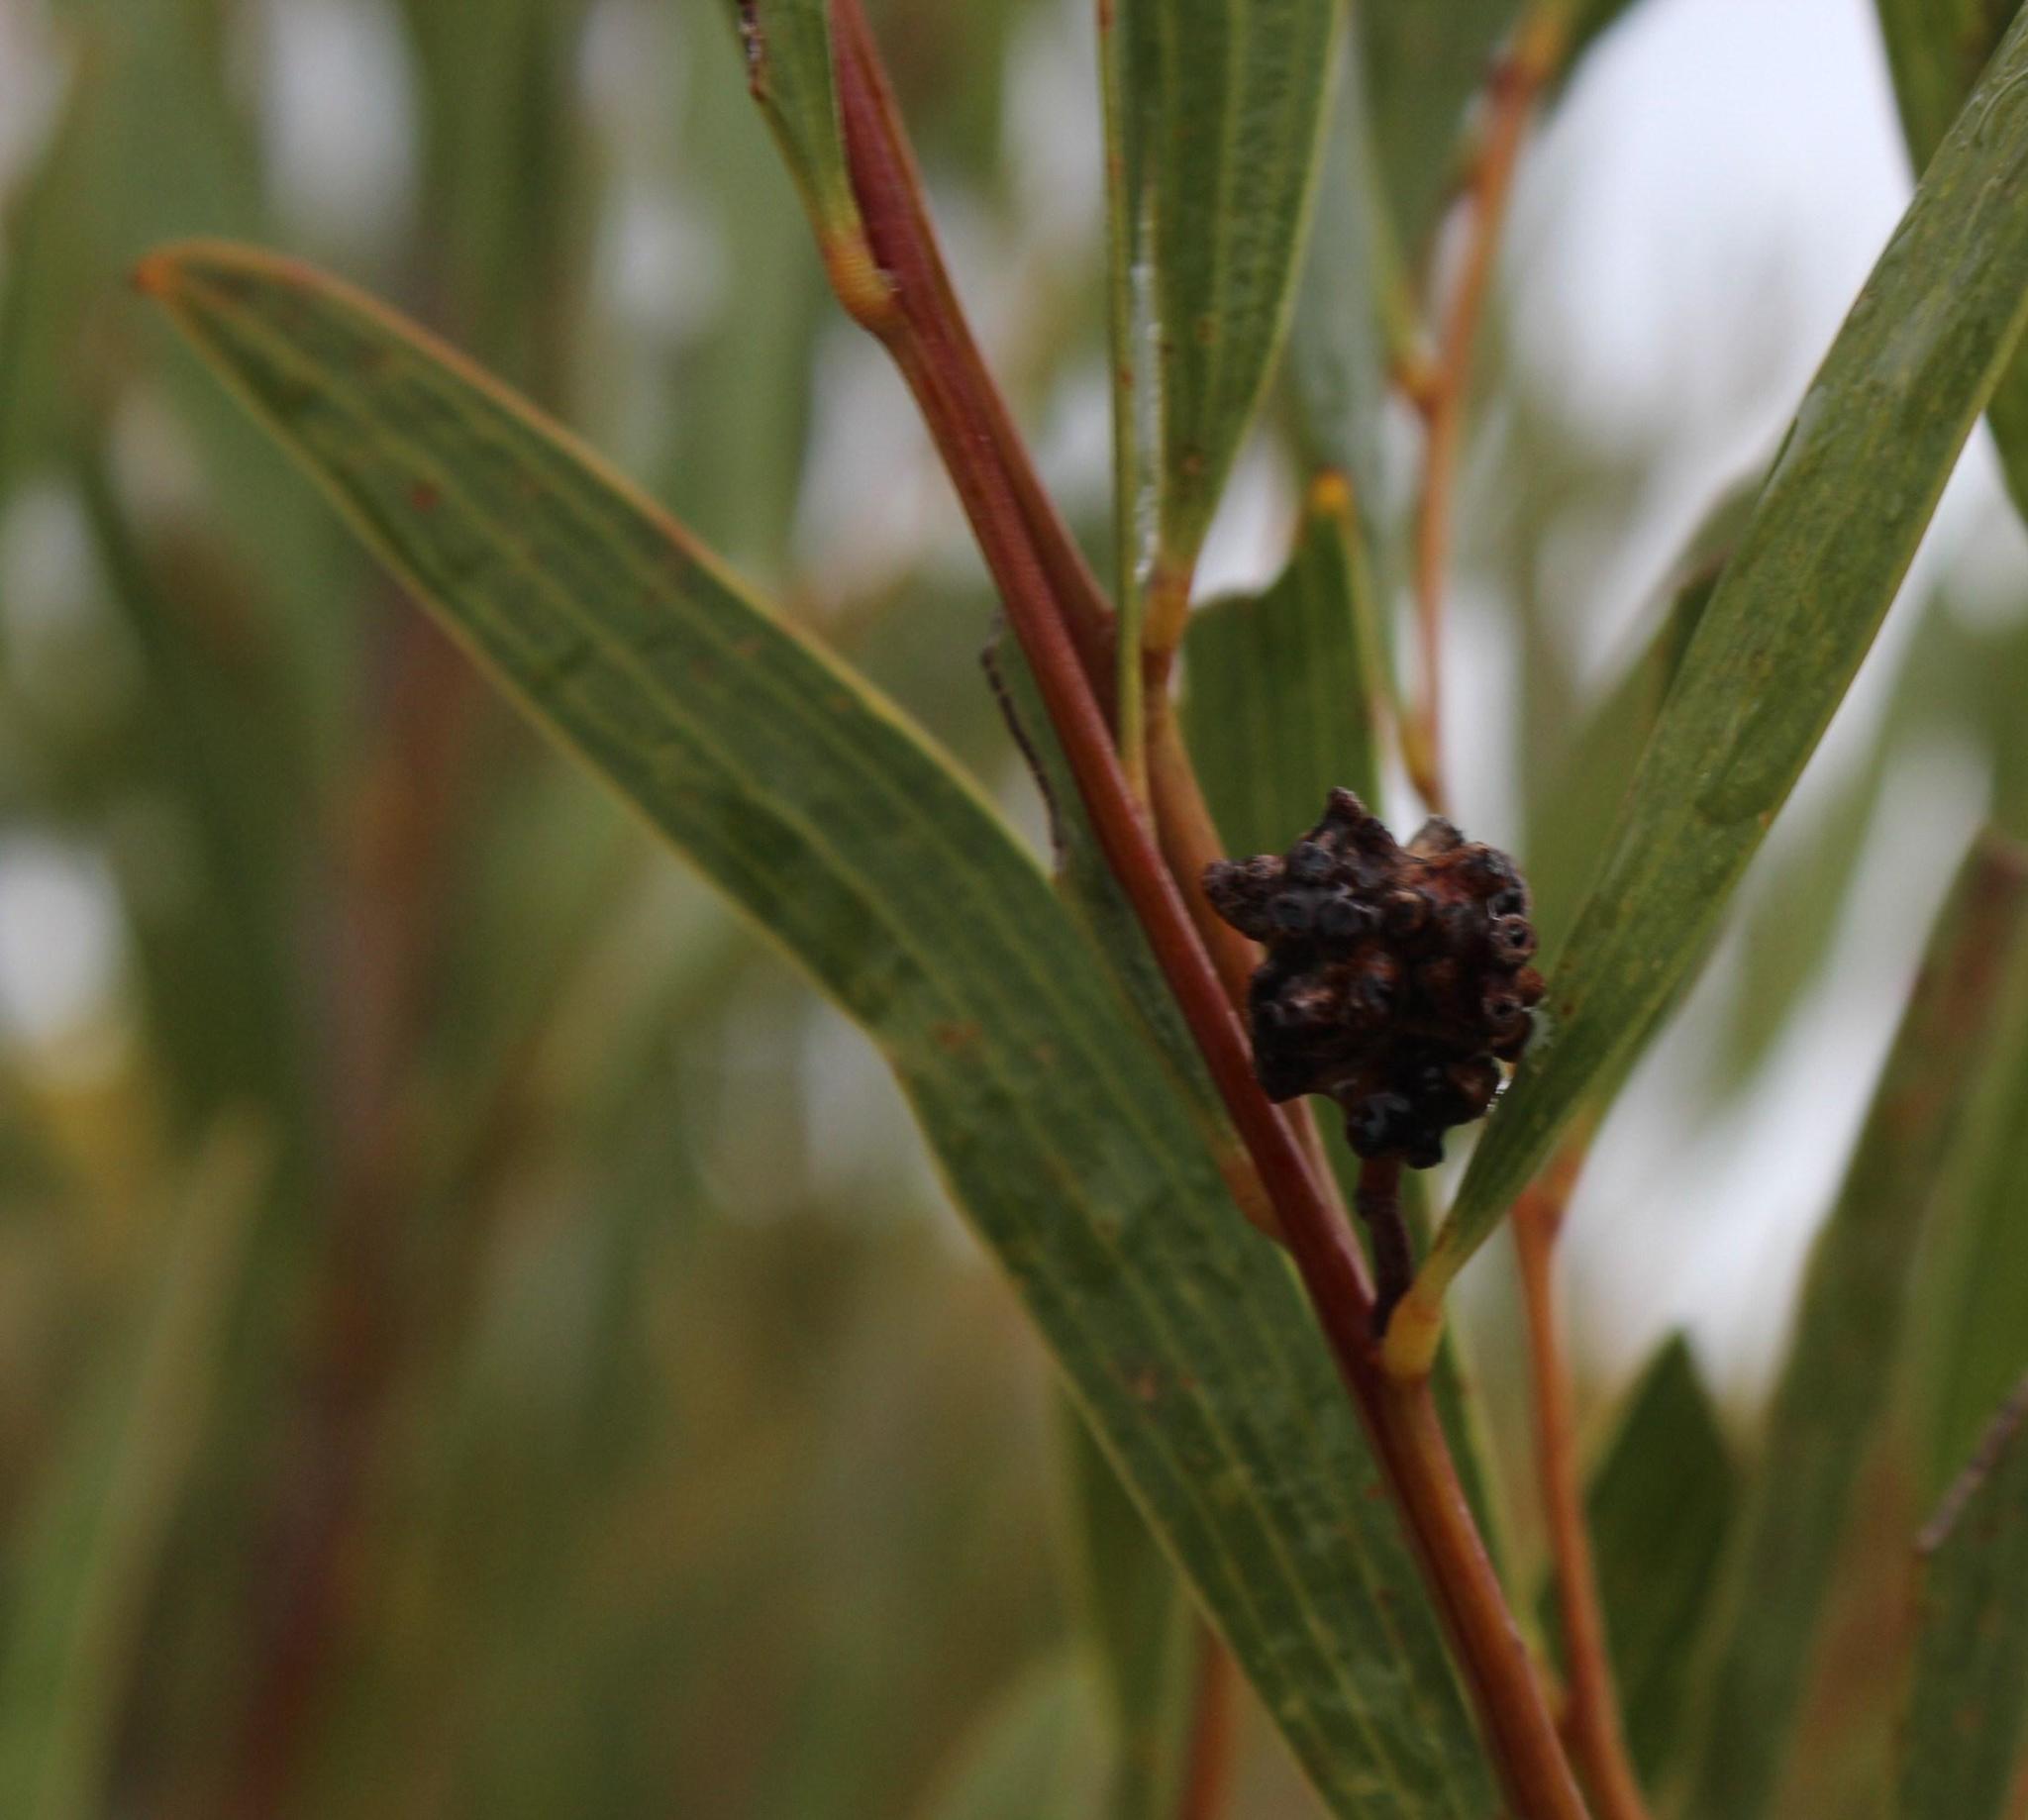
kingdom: Plantae
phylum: Tracheophyta
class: Magnoliopsida
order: Fabales
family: Fabaceae
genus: Acacia
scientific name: Acacia cyclops
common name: Coastal wattle
